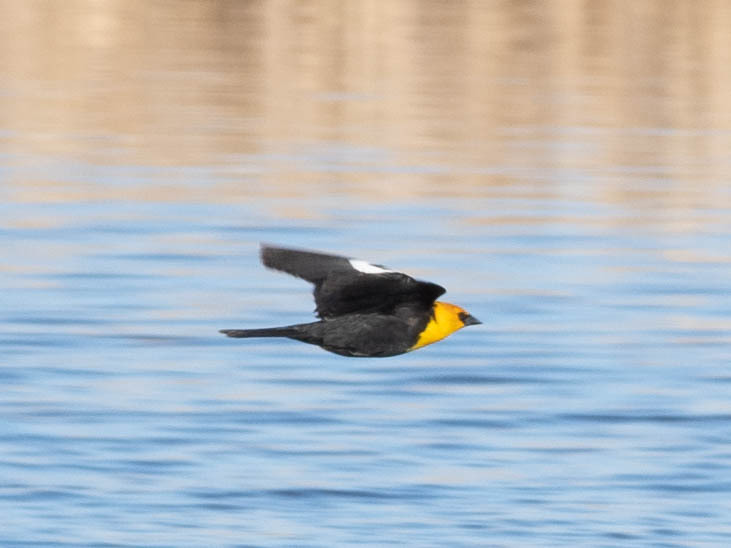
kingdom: Animalia
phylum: Chordata
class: Aves
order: Passeriformes
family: Icteridae
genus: Xanthocephalus
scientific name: Xanthocephalus xanthocephalus
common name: Yellow-headed blackbird
